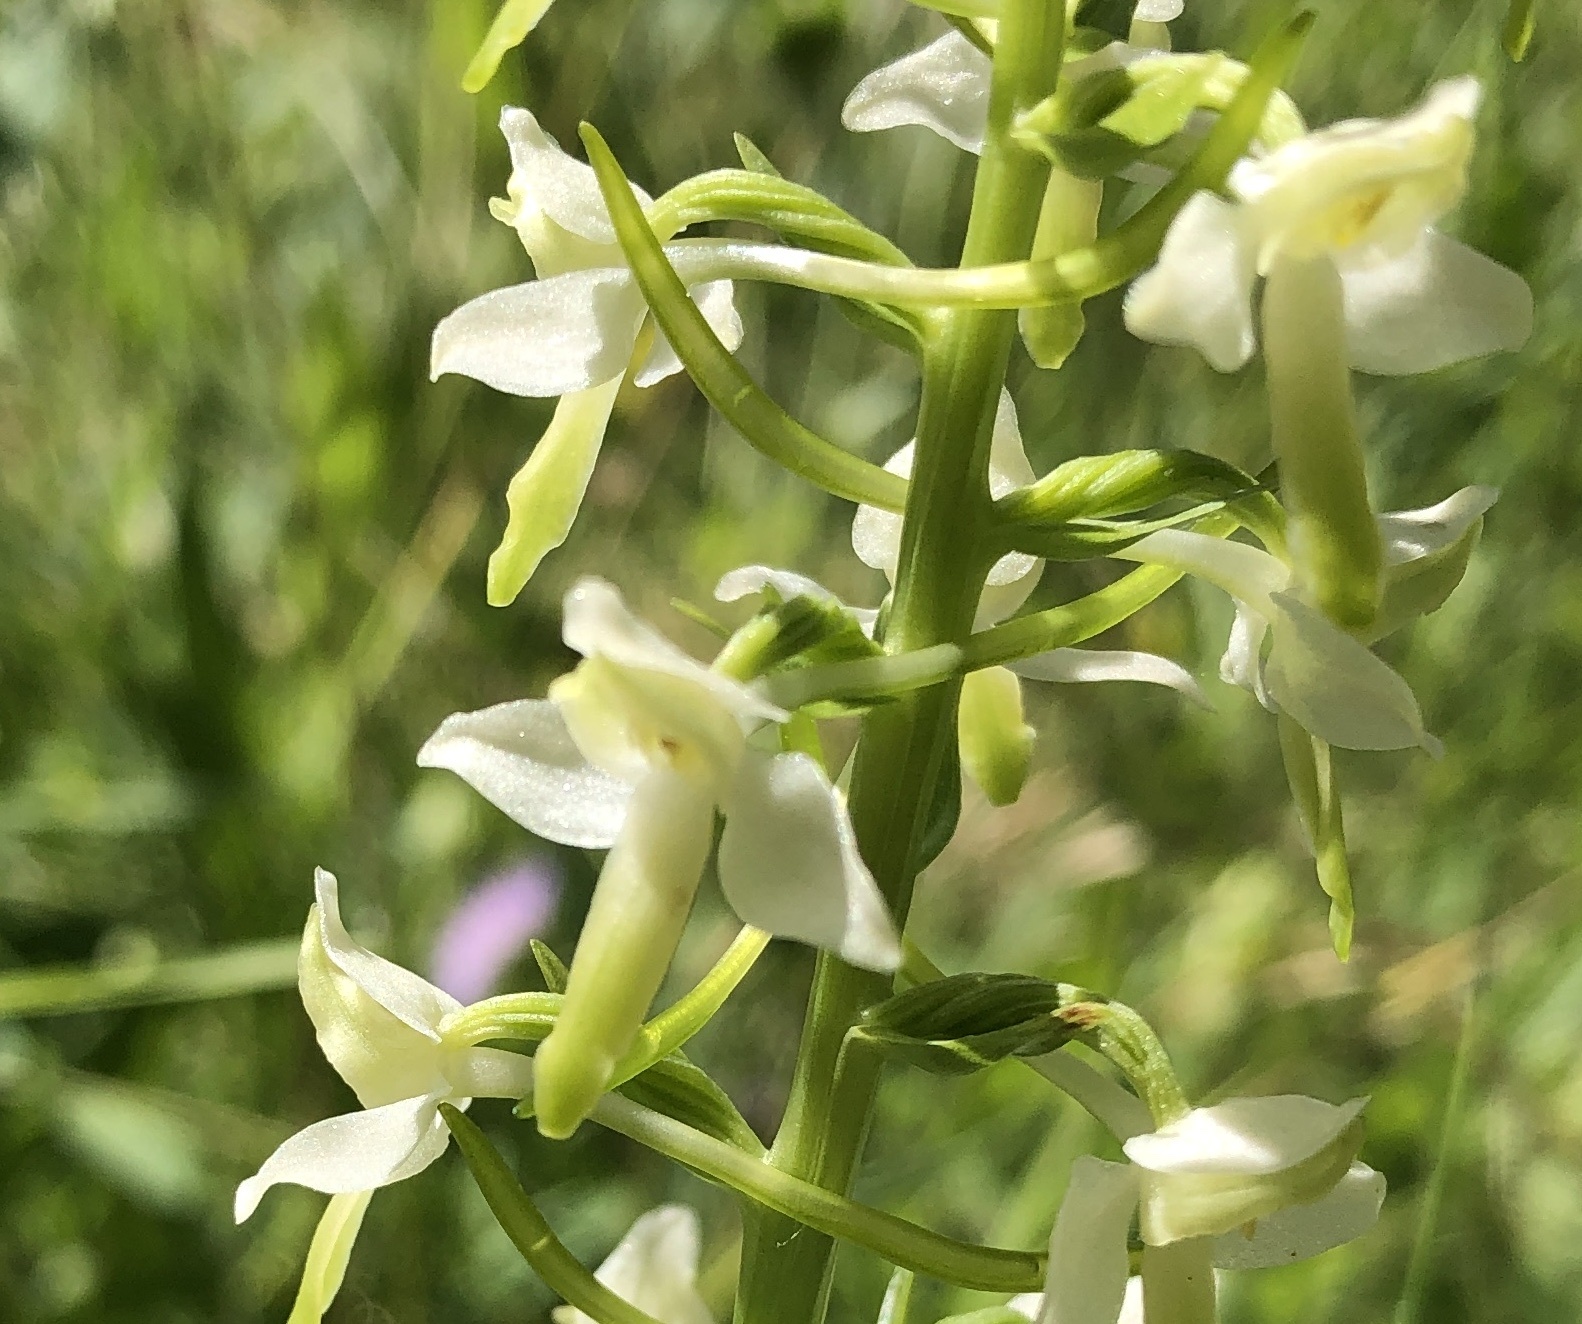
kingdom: Plantae
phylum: Tracheophyta
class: Liliopsida
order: Asparagales
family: Orchidaceae
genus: Platanthera
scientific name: Platanthera bifolia
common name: Lesser butterfly-orchid
